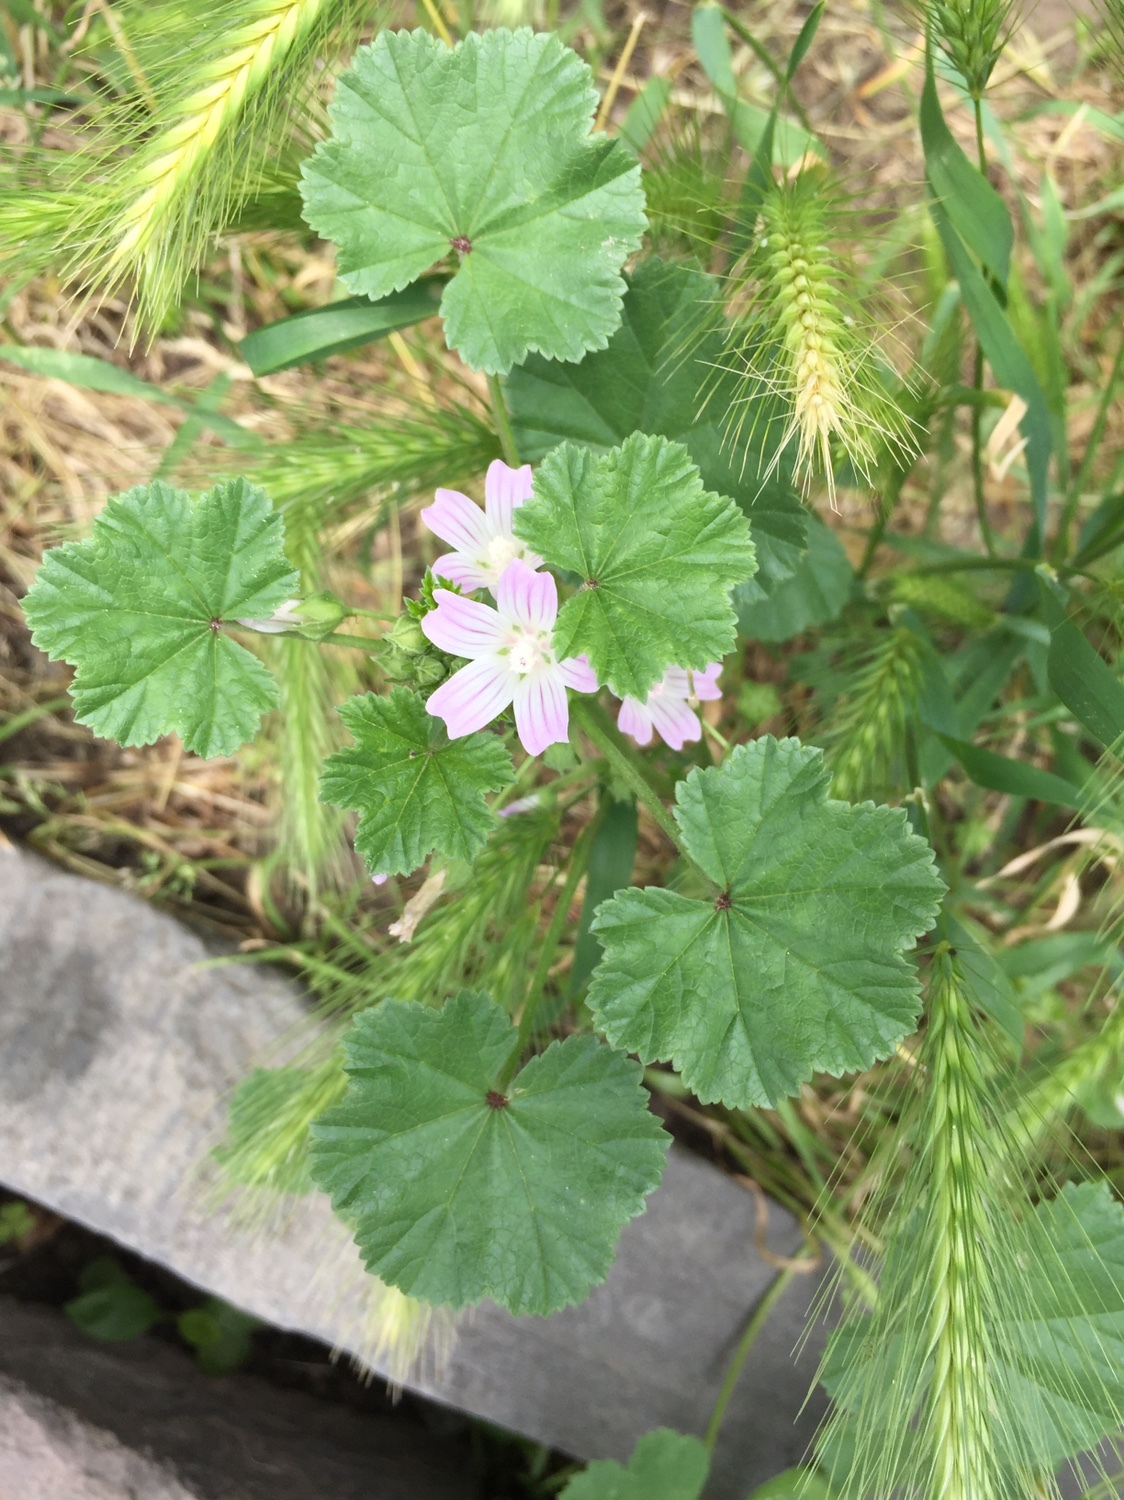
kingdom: Plantae
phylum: Tracheophyta
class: Magnoliopsida
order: Malvales
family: Malvaceae
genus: Malva
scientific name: Malva neglecta
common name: Common mallow
